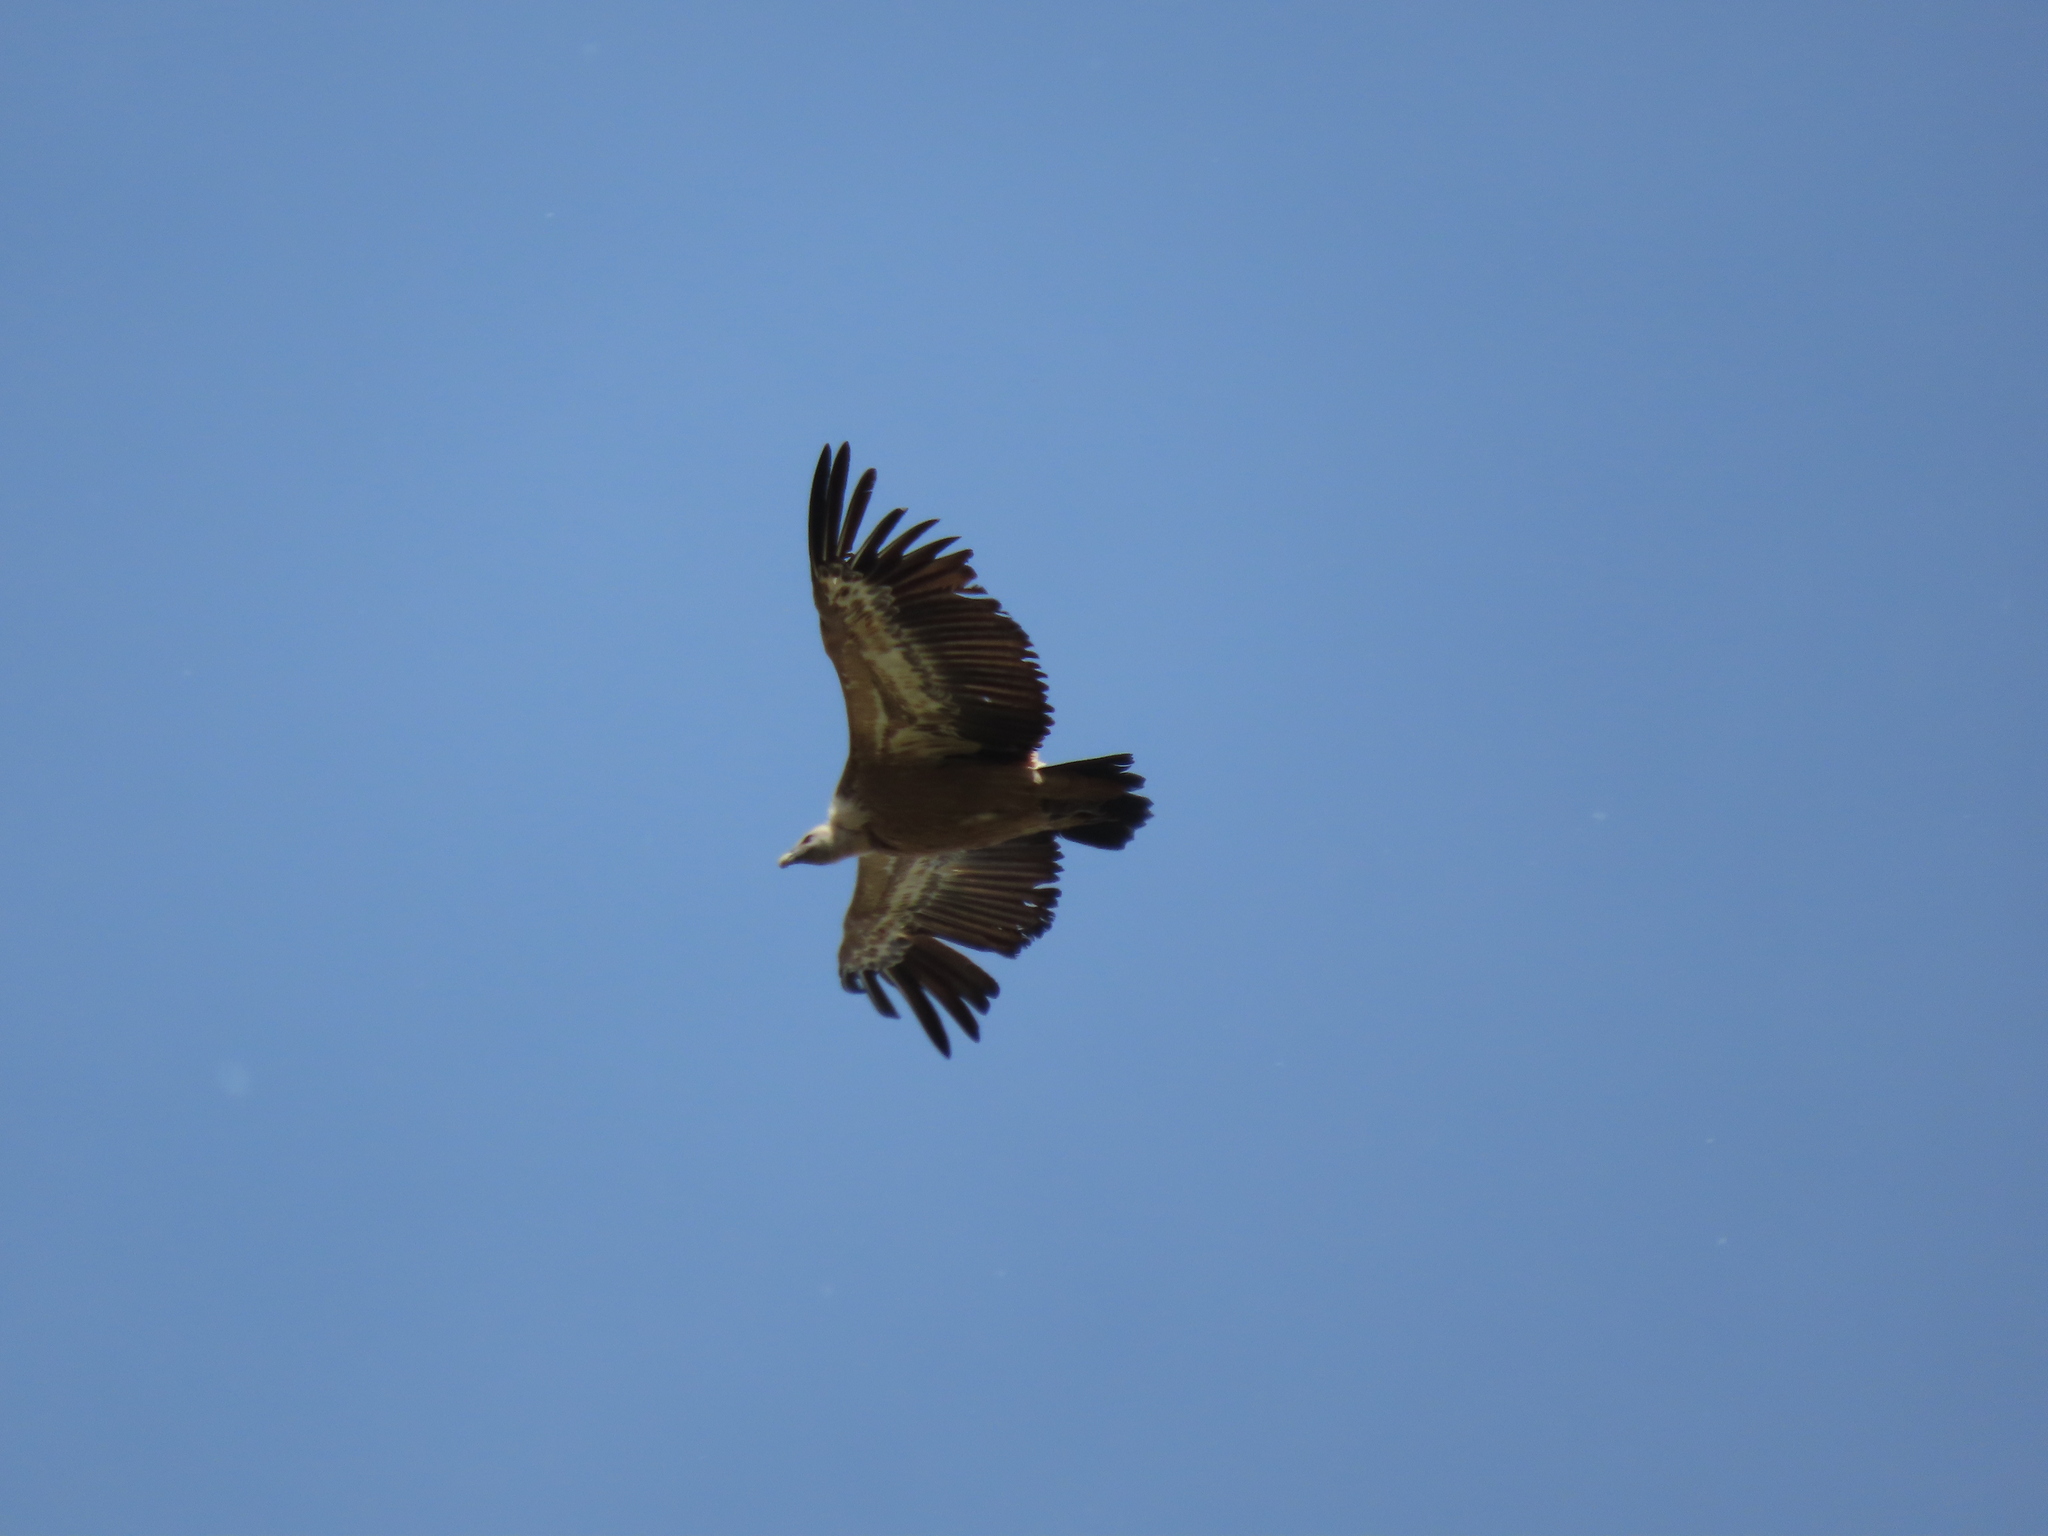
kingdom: Animalia
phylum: Chordata
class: Aves
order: Accipitriformes
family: Accipitridae
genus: Gyps
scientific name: Gyps fulvus
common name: Griffon vulture
